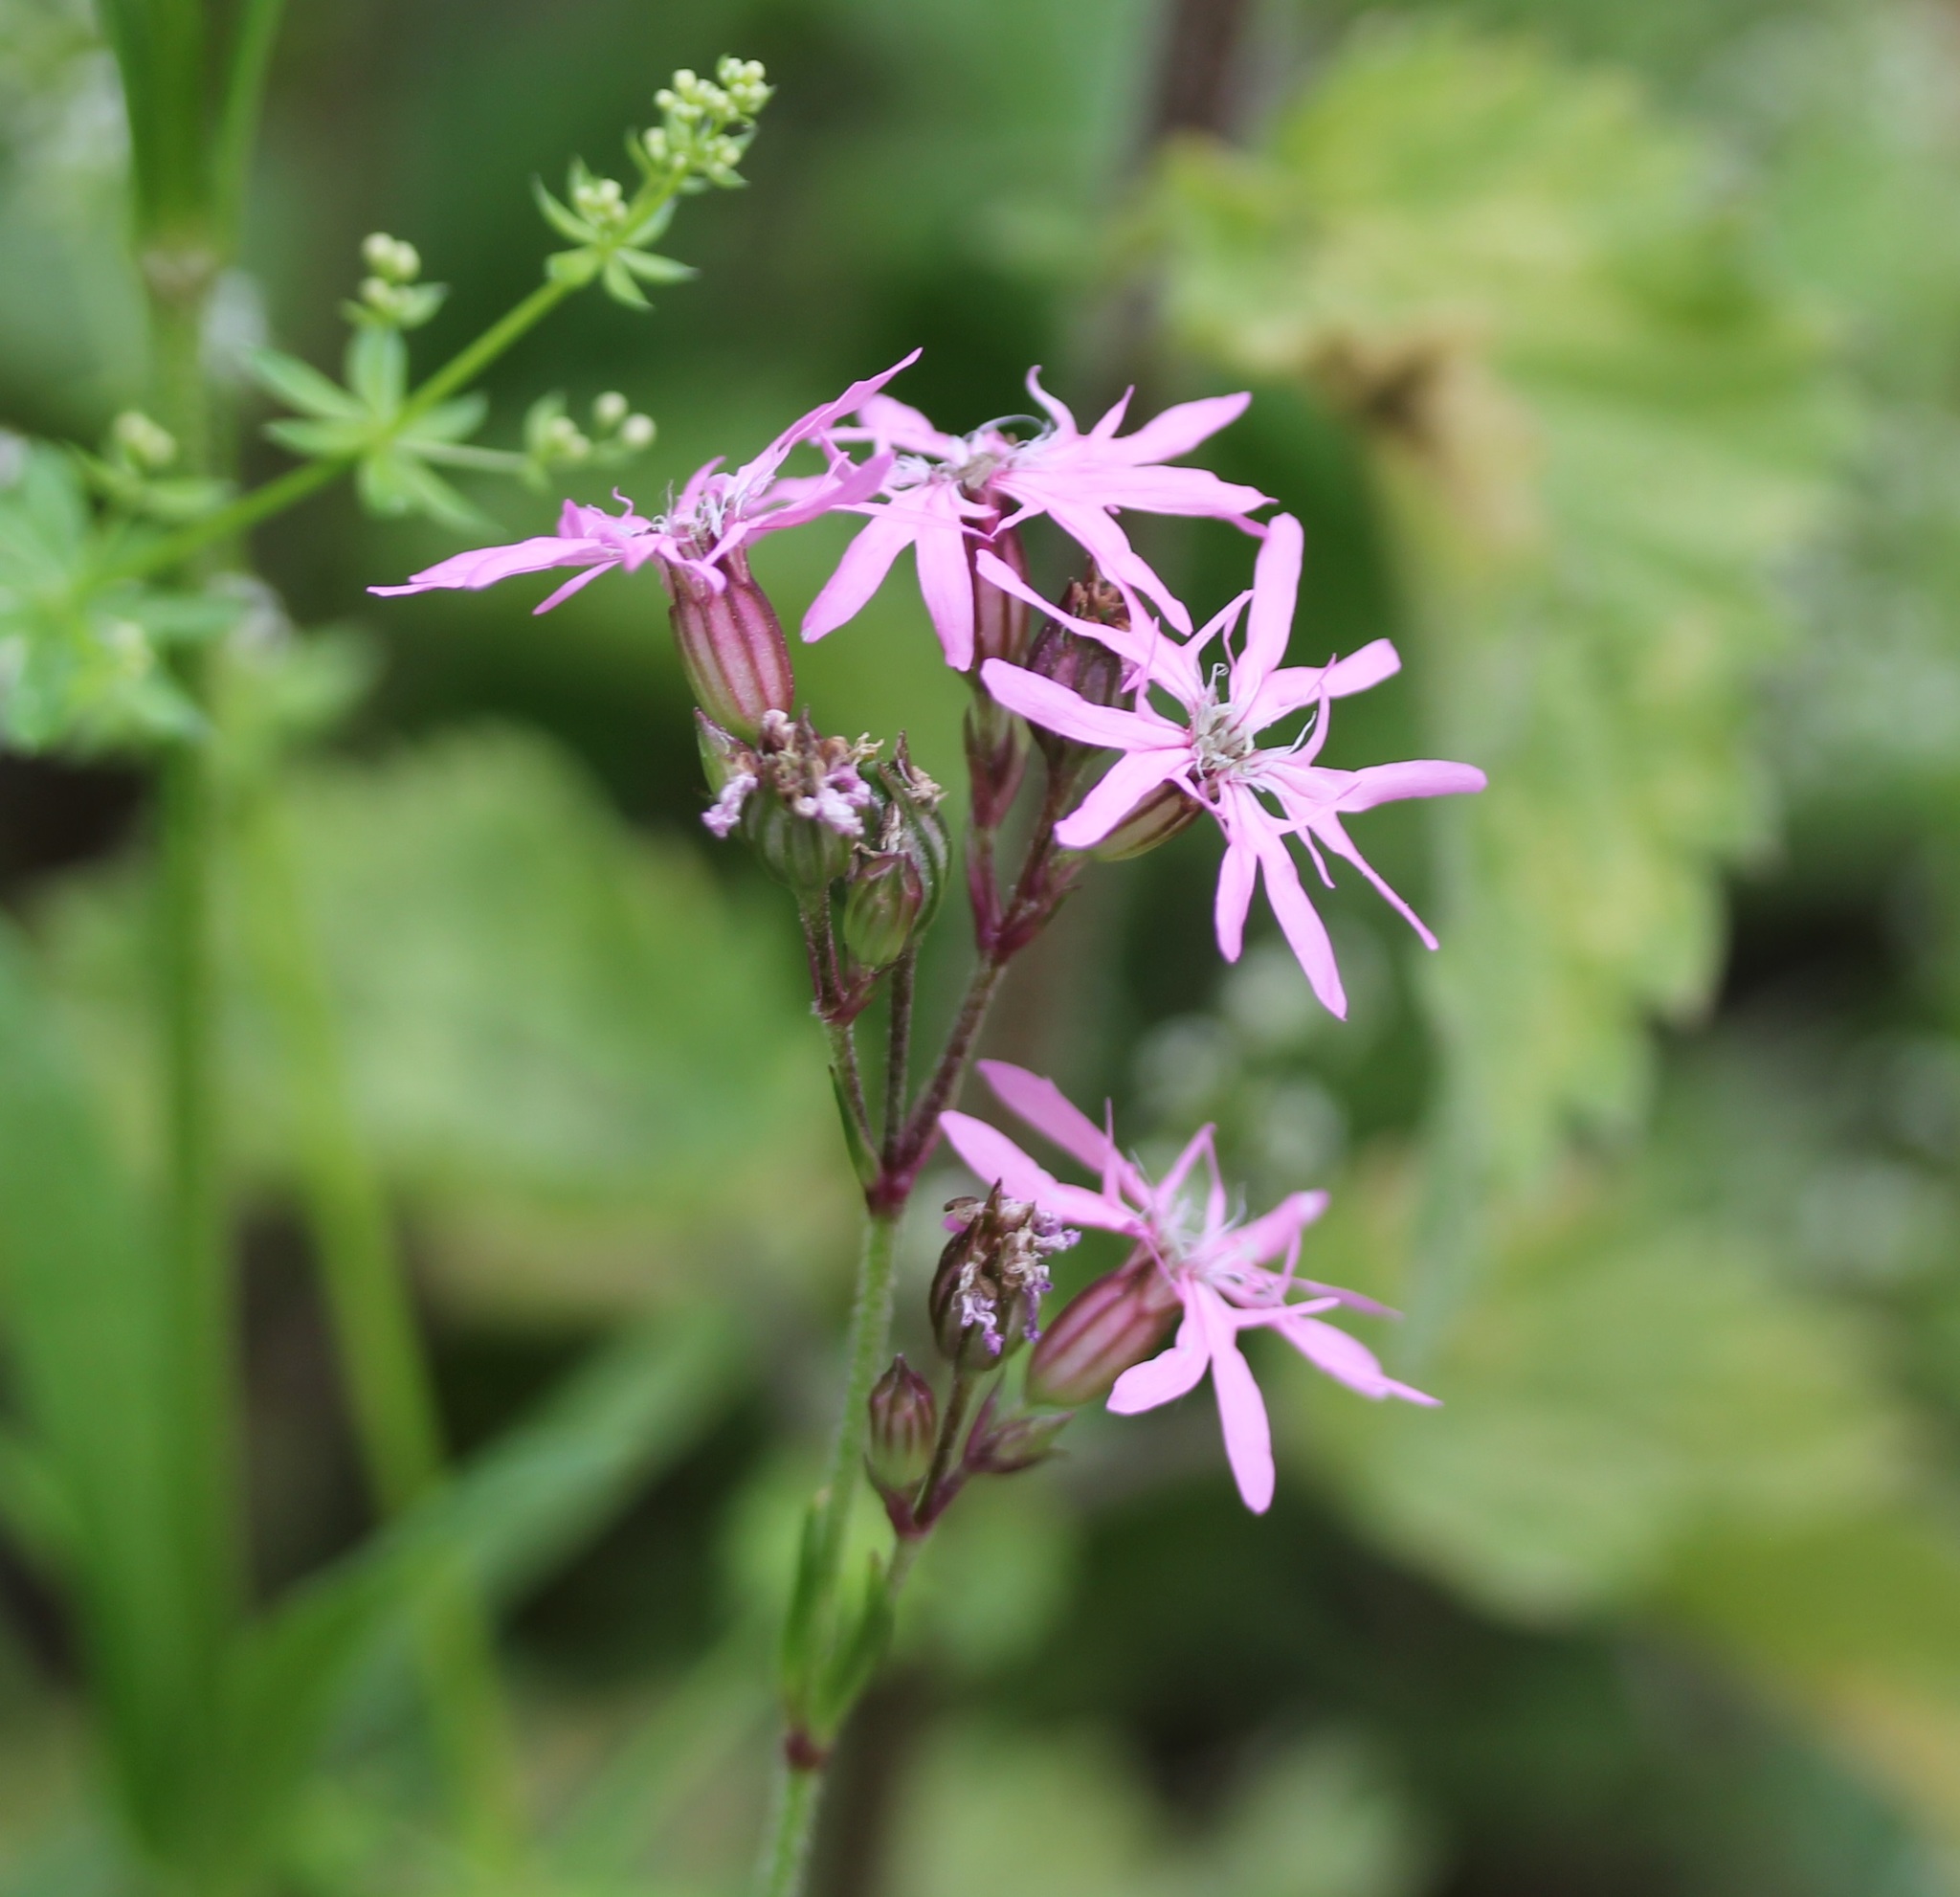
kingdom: Plantae
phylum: Tracheophyta
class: Magnoliopsida
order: Caryophyllales
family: Caryophyllaceae
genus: Silene
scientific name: Silene flos-cuculi
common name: Ragged-robin
